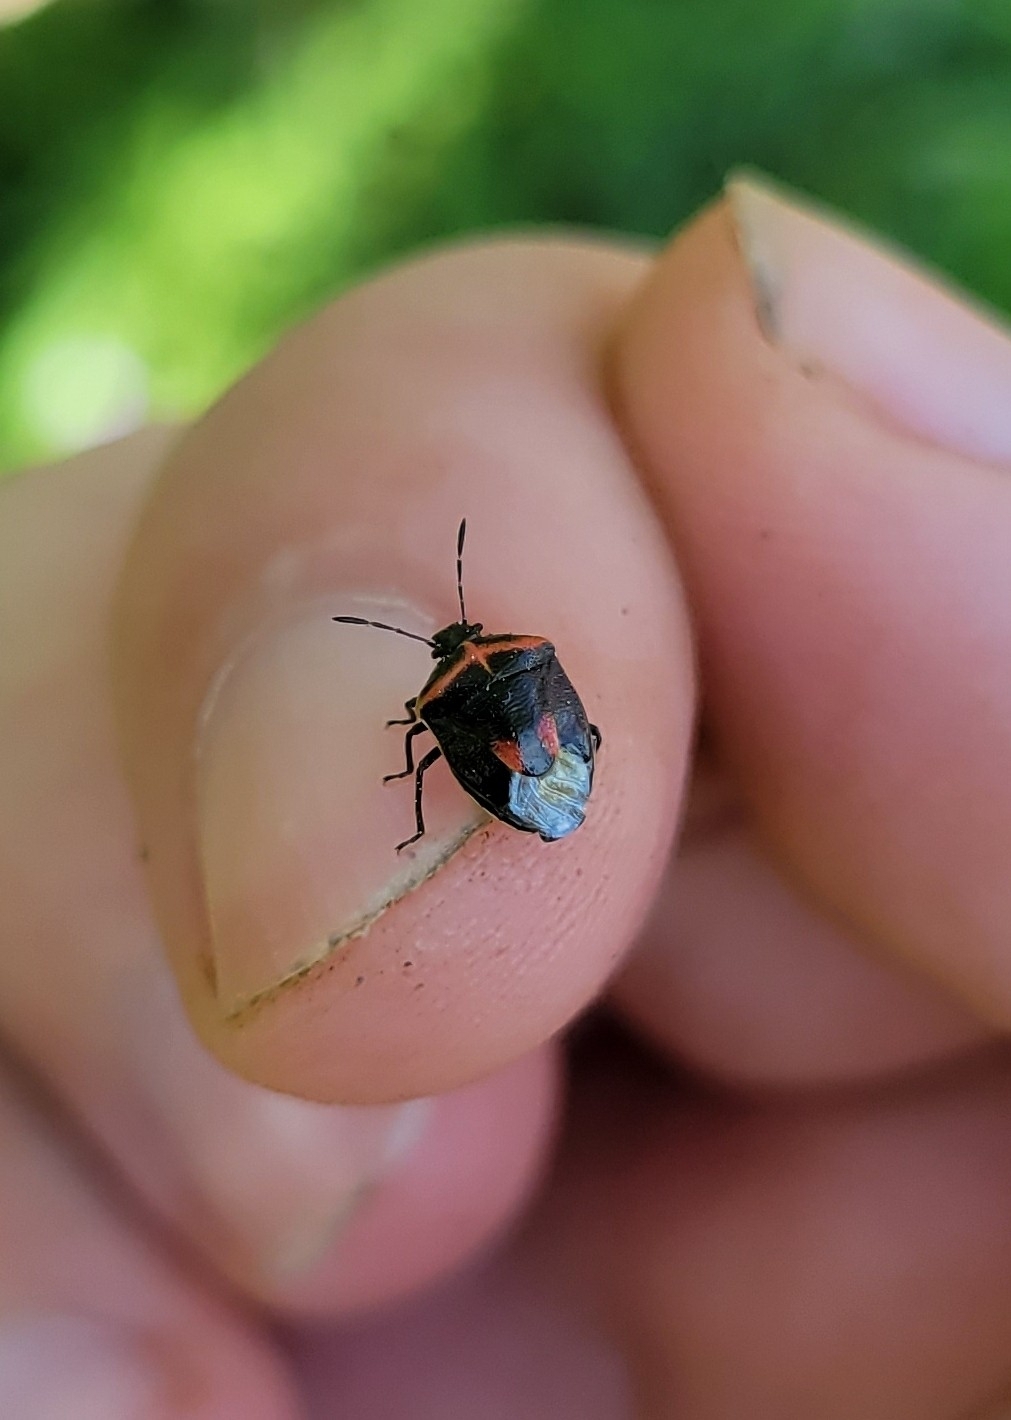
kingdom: Animalia
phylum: Arthropoda
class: Insecta
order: Hemiptera
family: Pentatomidae
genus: Cosmopepla
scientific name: Cosmopepla lintneriana
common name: Twice-stabbed stink bug
